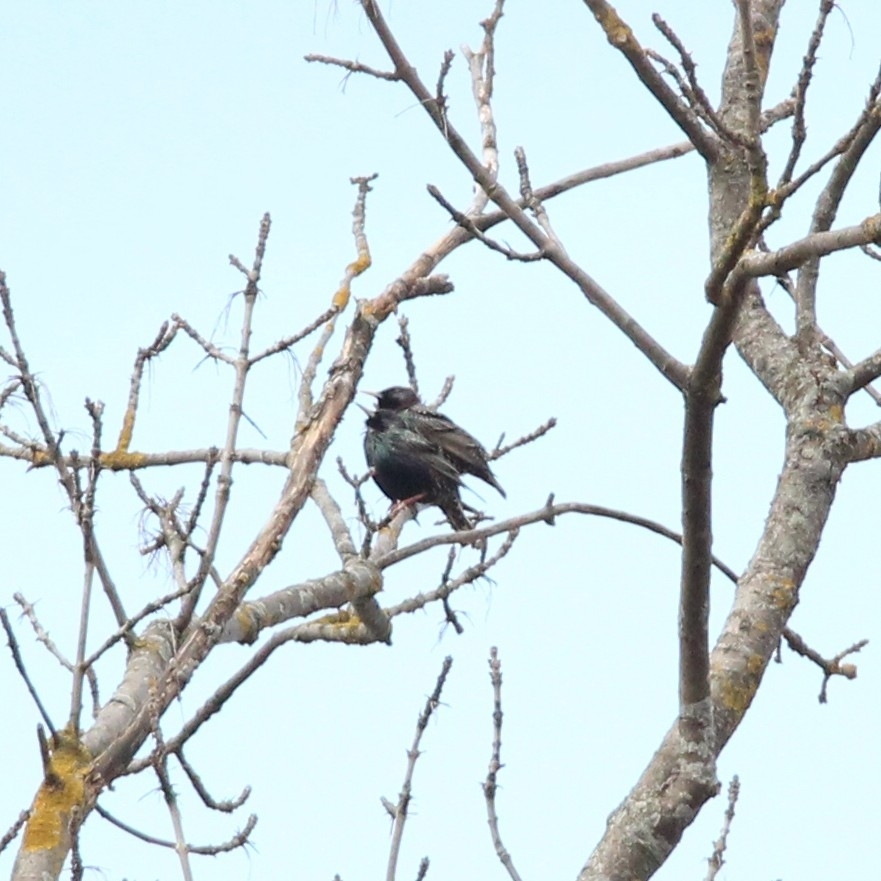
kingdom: Animalia
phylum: Chordata
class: Aves
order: Passeriformes
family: Sturnidae
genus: Sturnus
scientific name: Sturnus vulgaris
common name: Common starling
